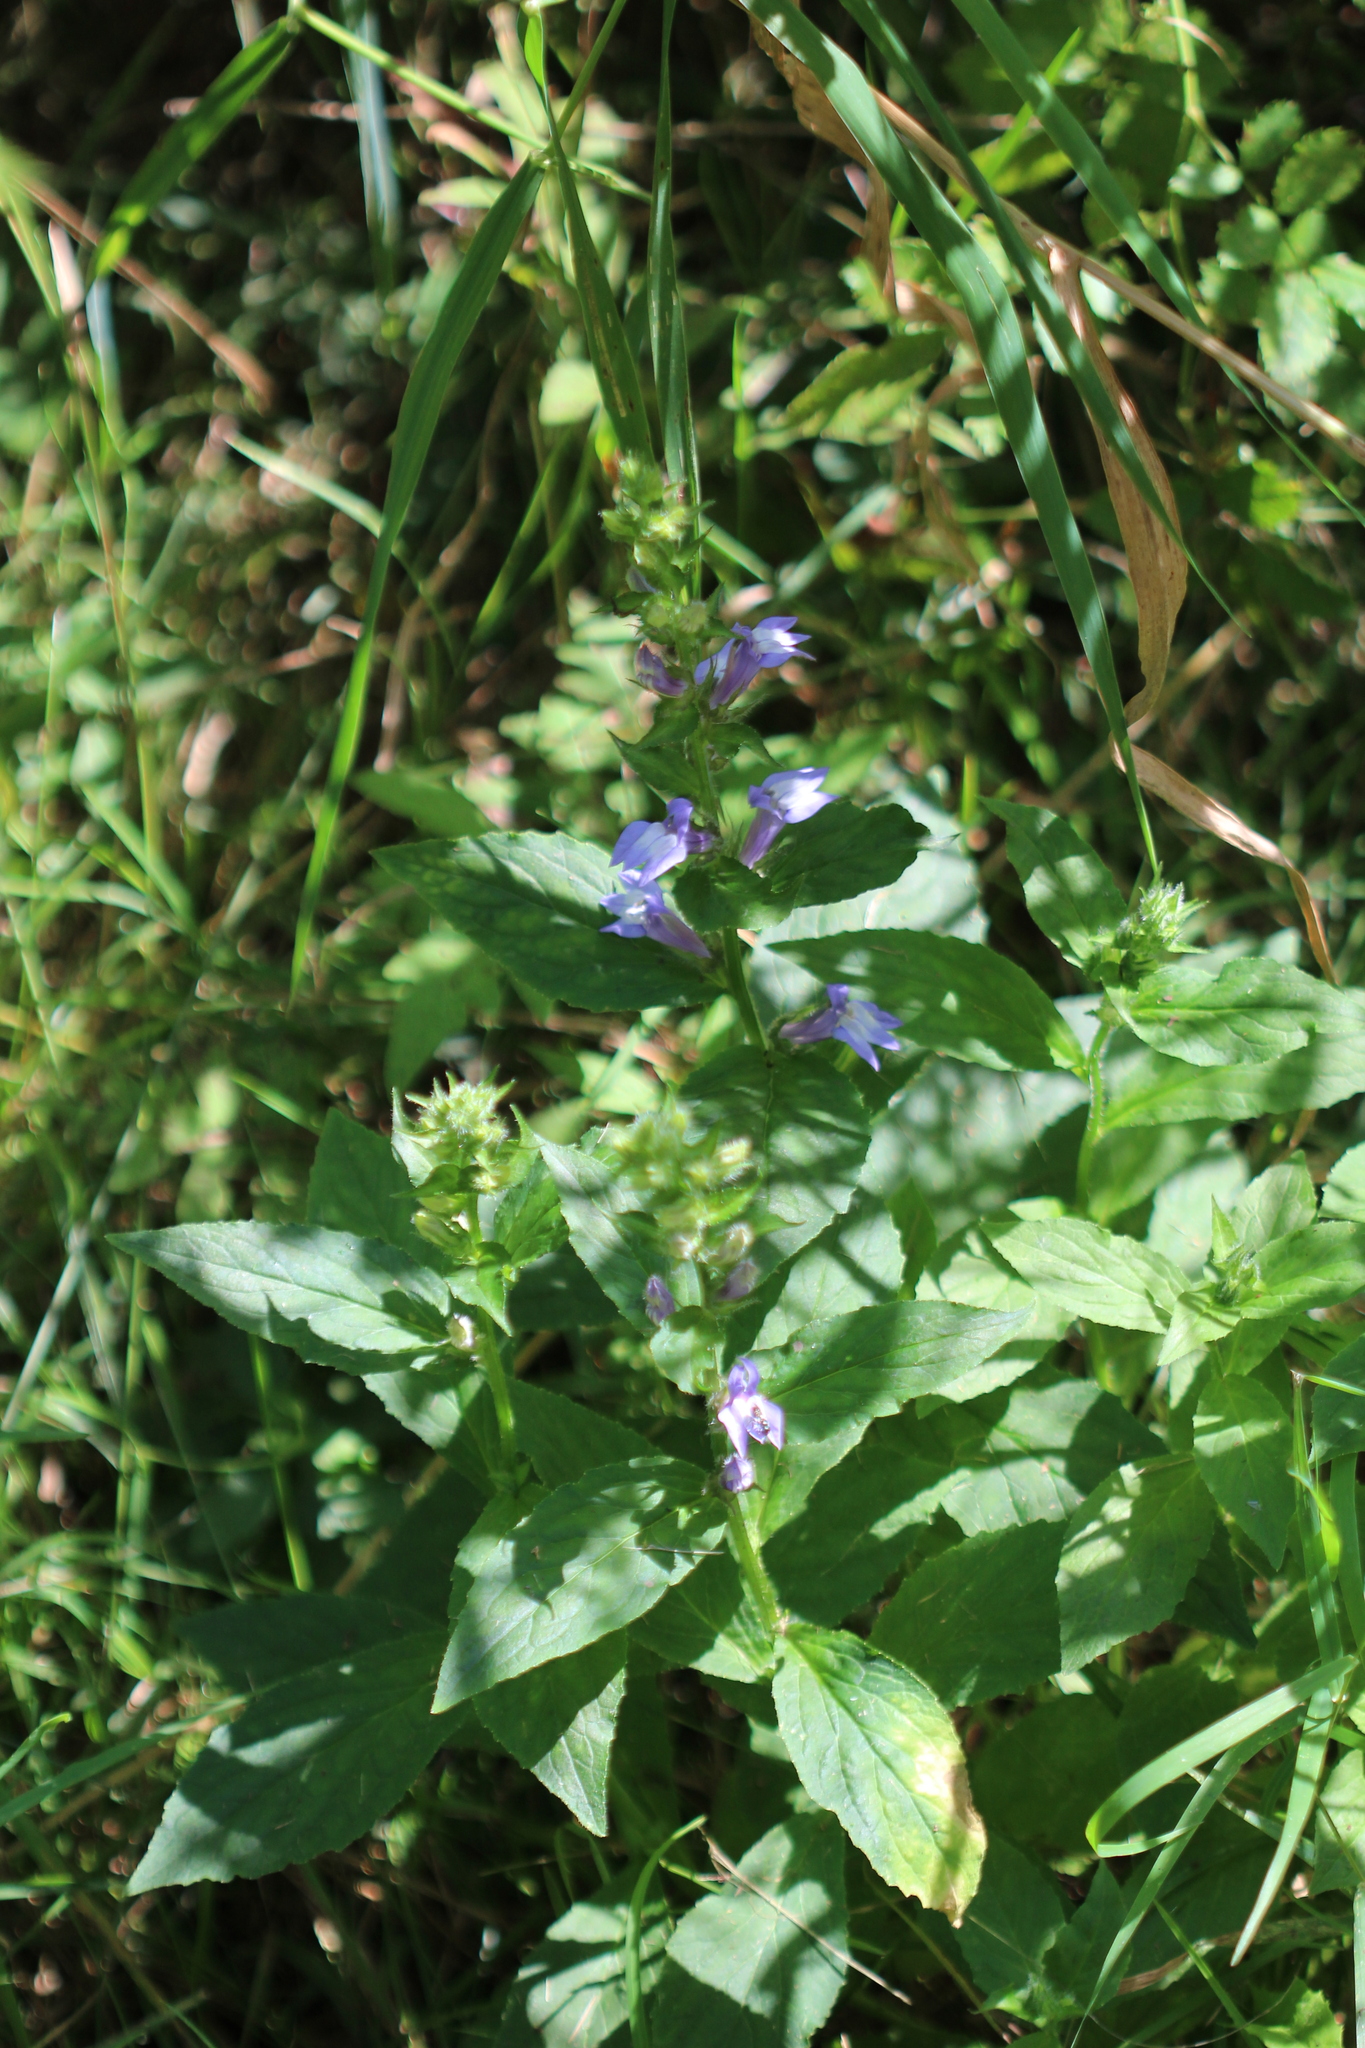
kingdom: Plantae
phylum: Tracheophyta
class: Magnoliopsida
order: Asterales
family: Campanulaceae
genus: Lobelia
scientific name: Lobelia siphilitica
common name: Great lobelia
